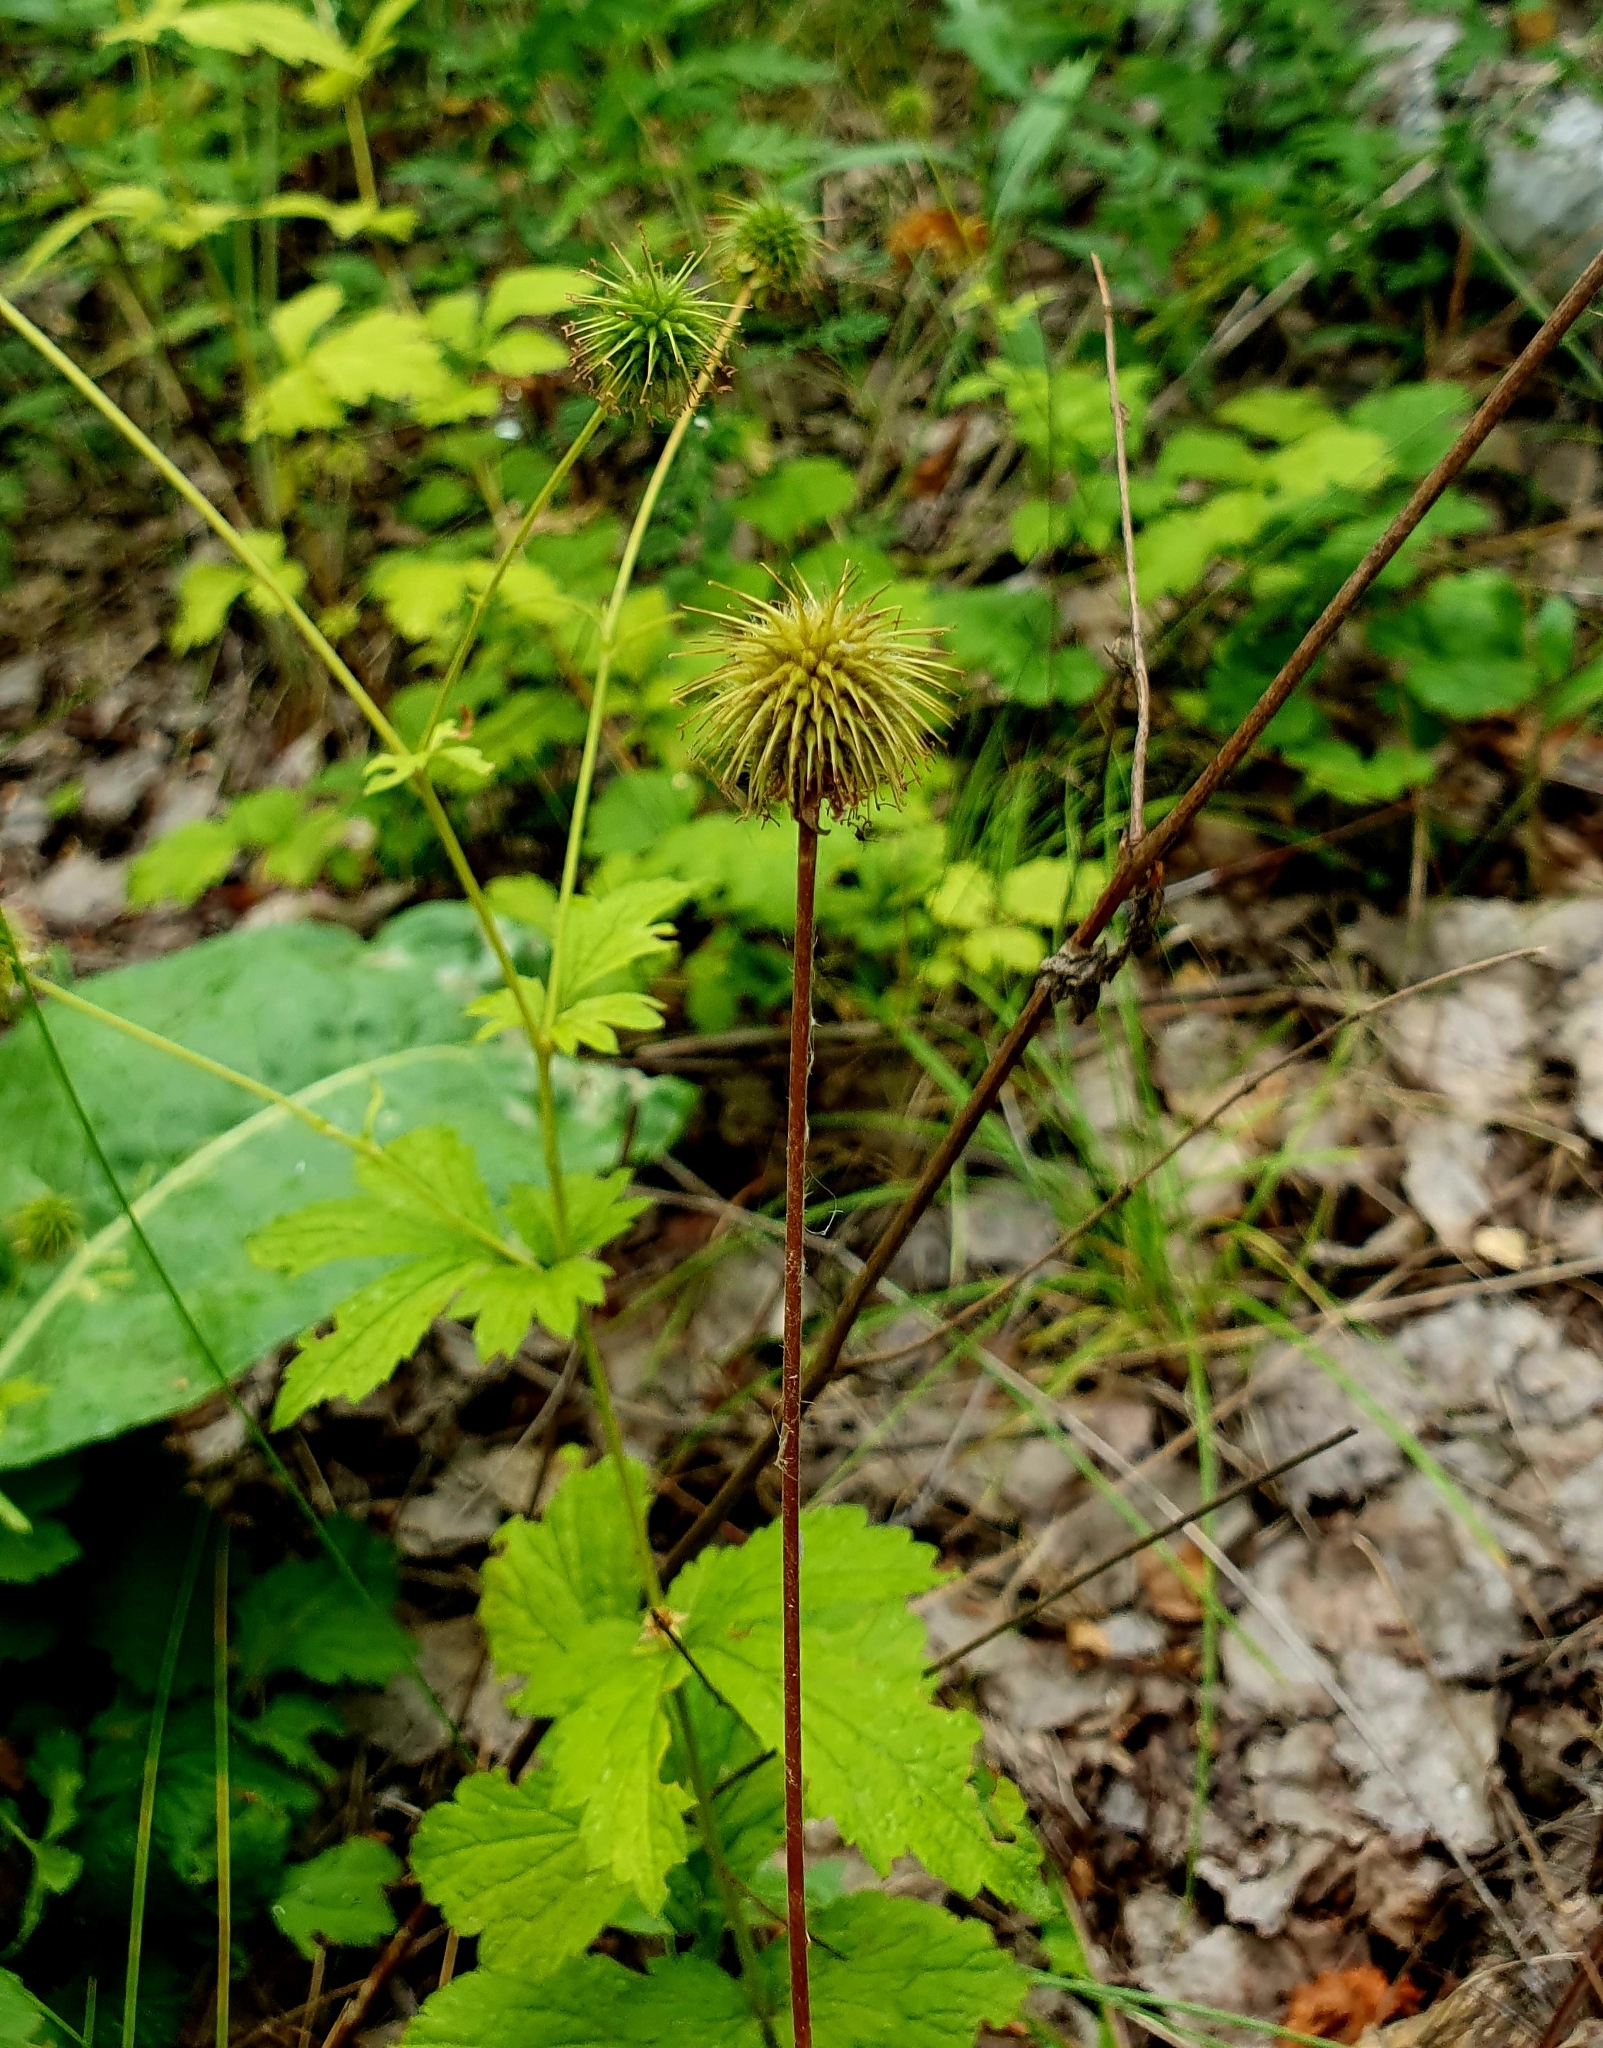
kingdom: Plantae
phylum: Tracheophyta
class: Magnoliopsida
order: Rosales
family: Rosaceae
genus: Geum
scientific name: Geum aleppicum
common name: Yellow avens
